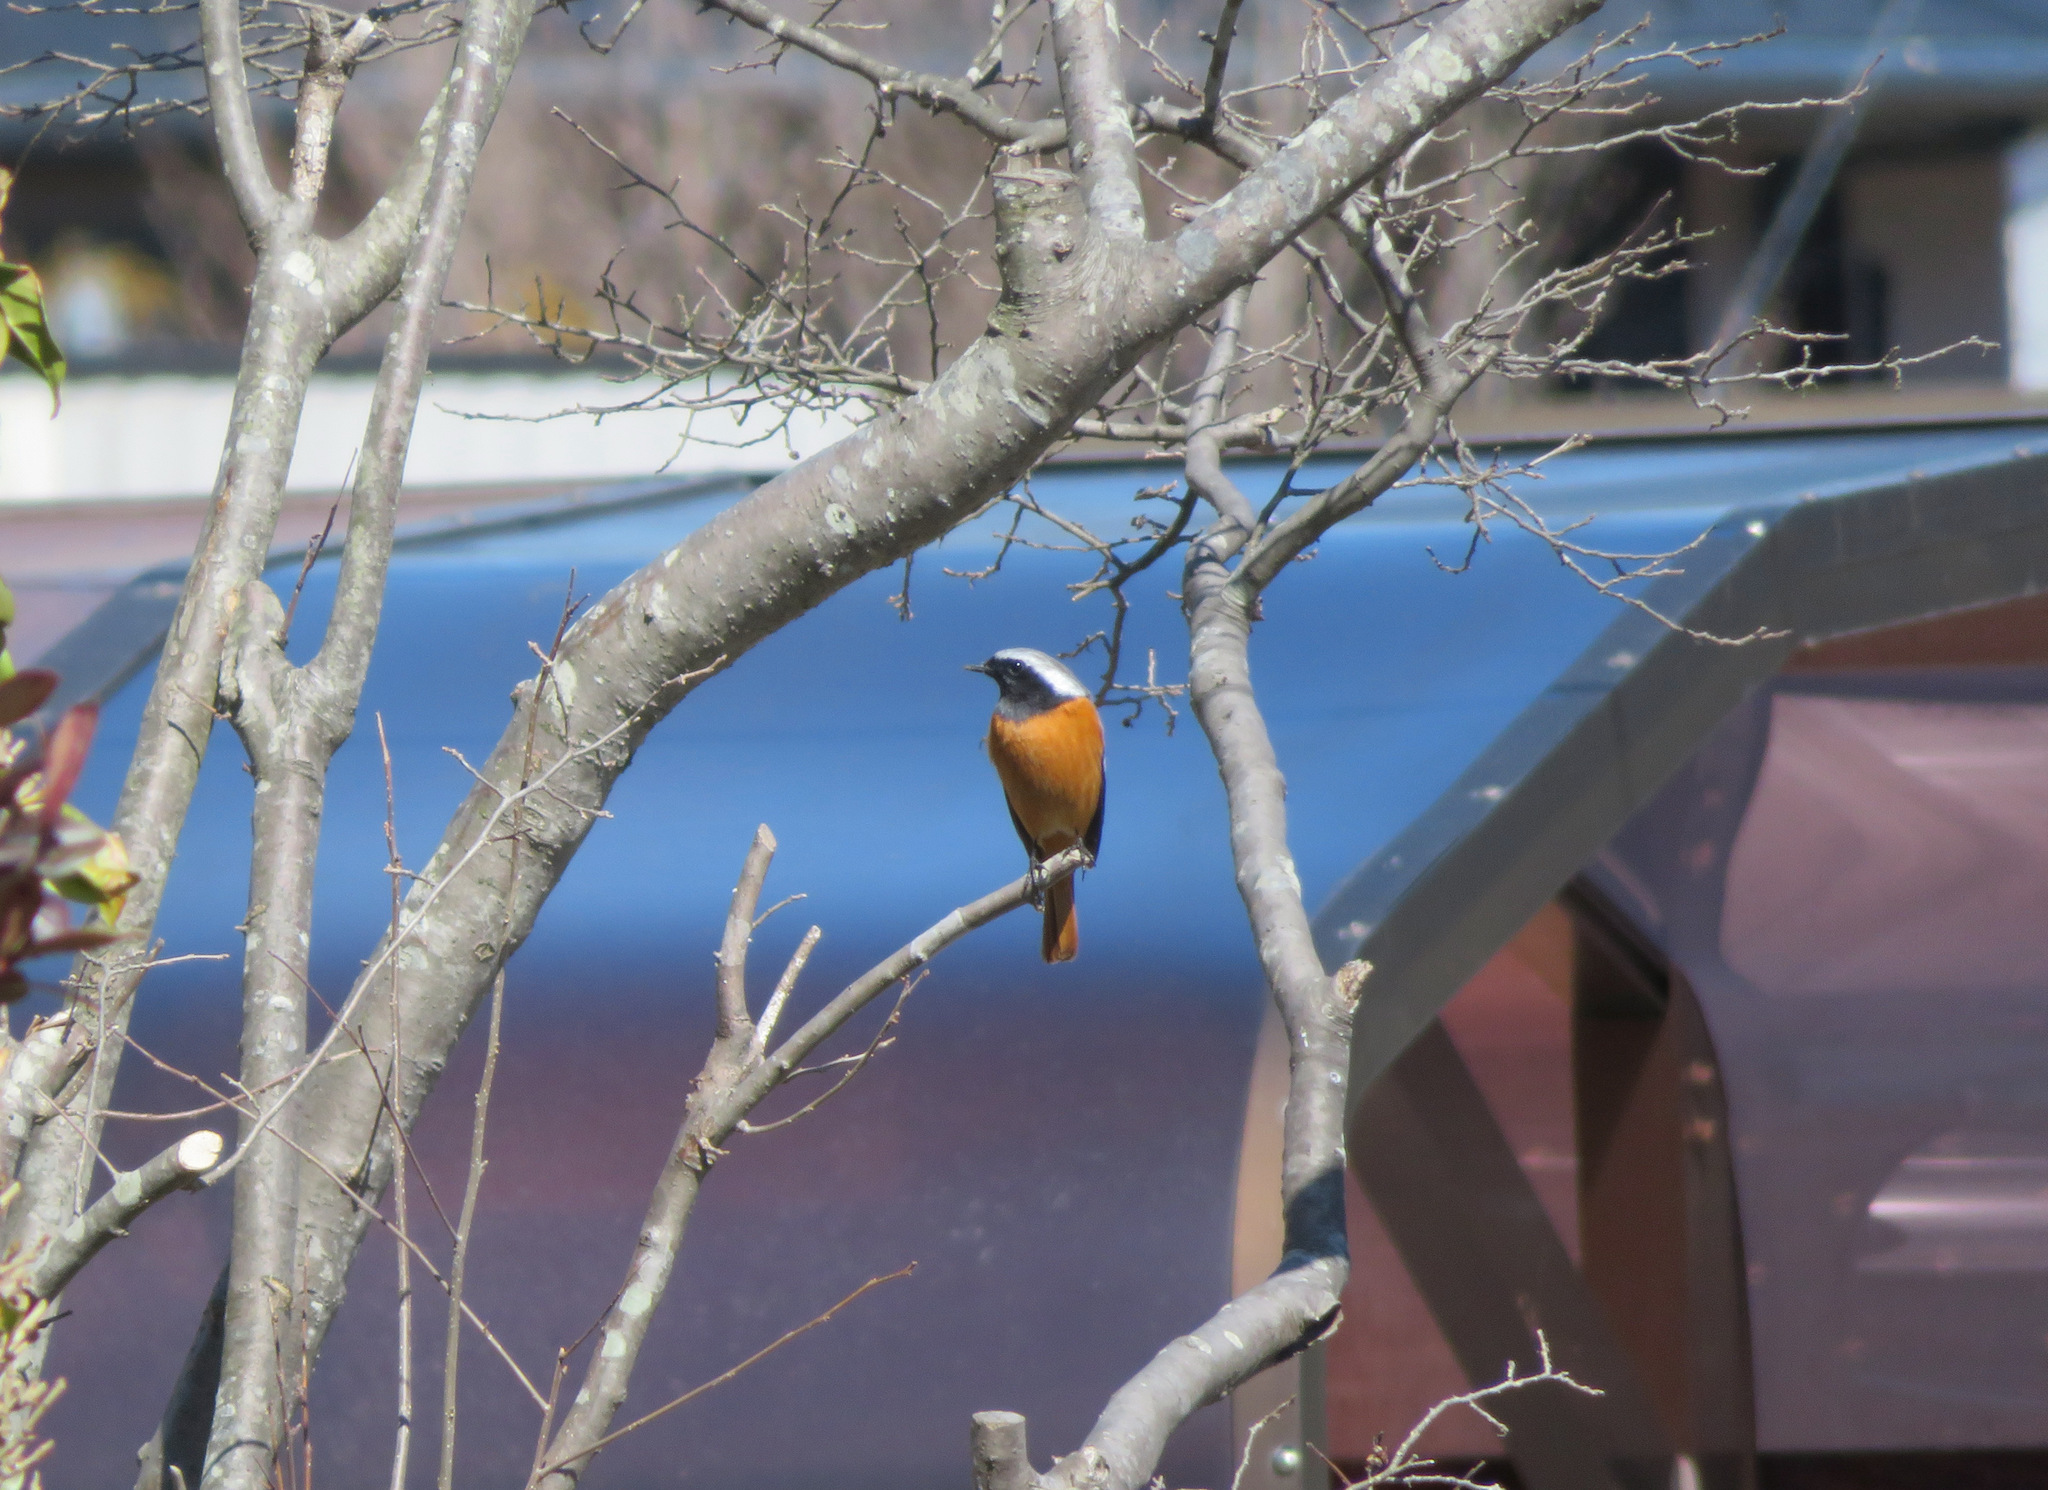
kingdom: Animalia
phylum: Chordata
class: Aves
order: Passeriformes
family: Muscicapidae
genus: Phoenicurus
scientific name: Phoenicurus auroreus
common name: Daurian redstart
